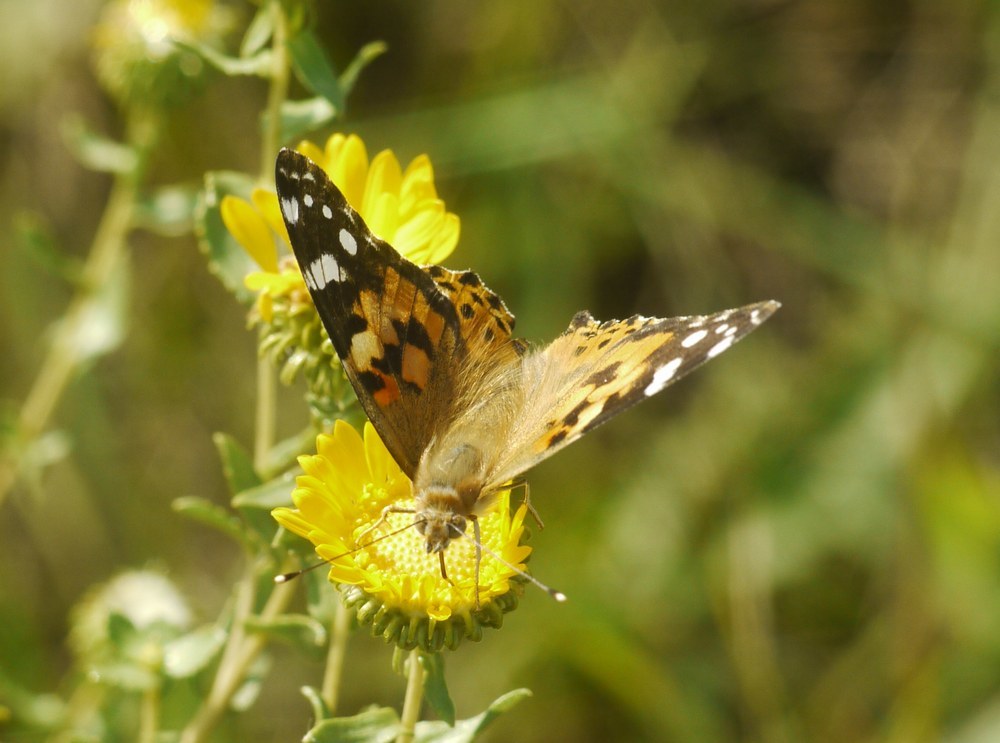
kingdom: Animalia
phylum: Arthropoda
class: Insecta
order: Lepidoptera
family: Nymphalidae
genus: Vanessa
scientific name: Vanessa cardui
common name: Painted lady
